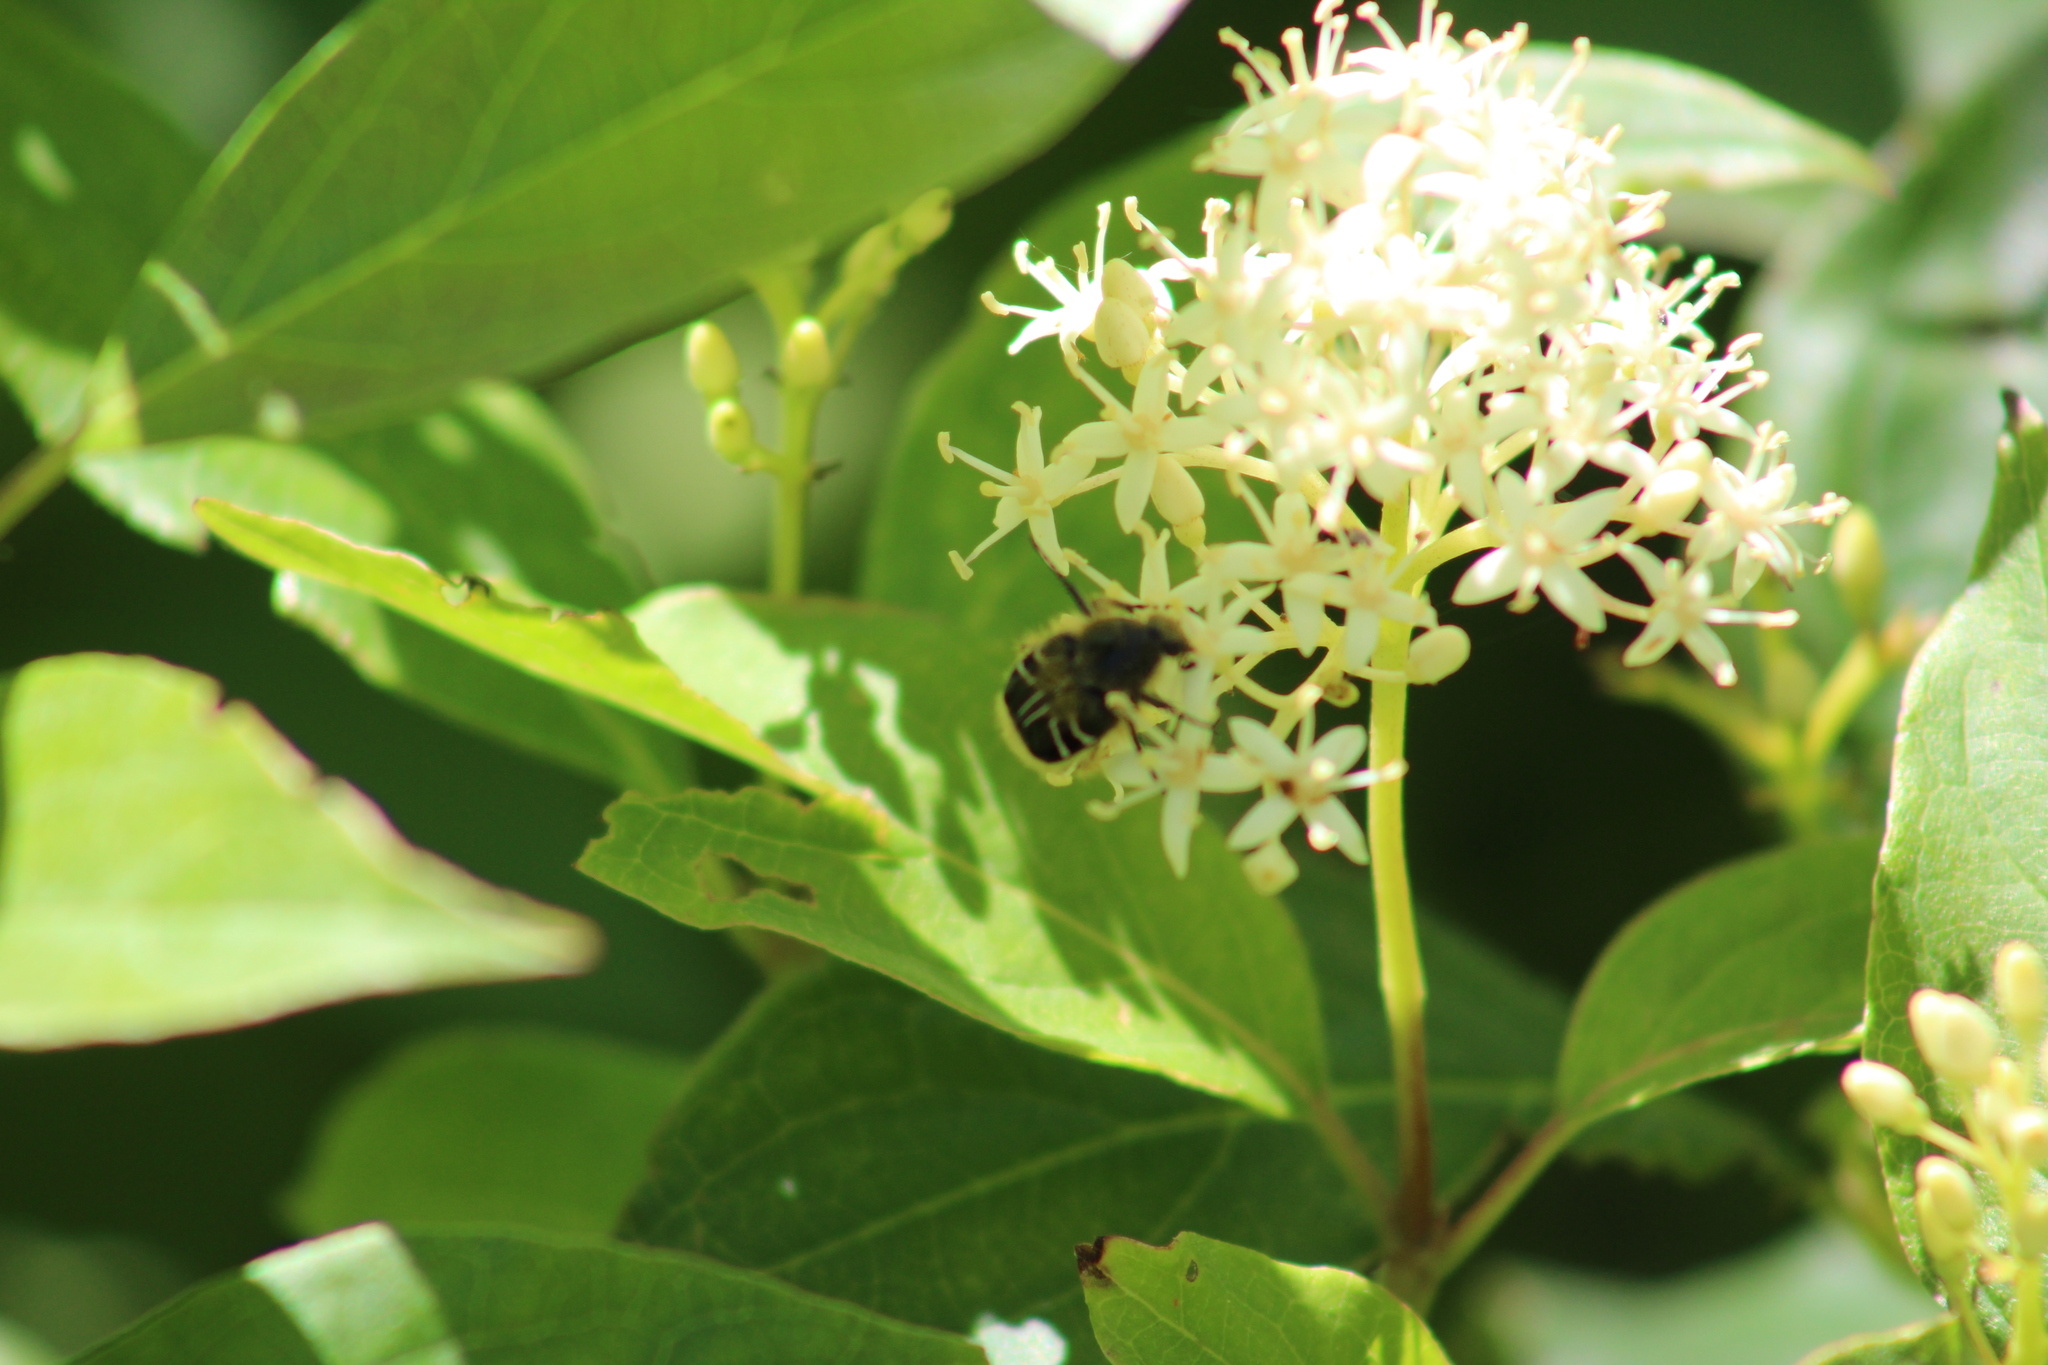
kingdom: Animalia
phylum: Arthropoda
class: Insecta
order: Coleoptera
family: Scarabaeidae
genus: Trichiotinus
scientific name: Trichiotinus assimilis
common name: Bee-mimic beetle
